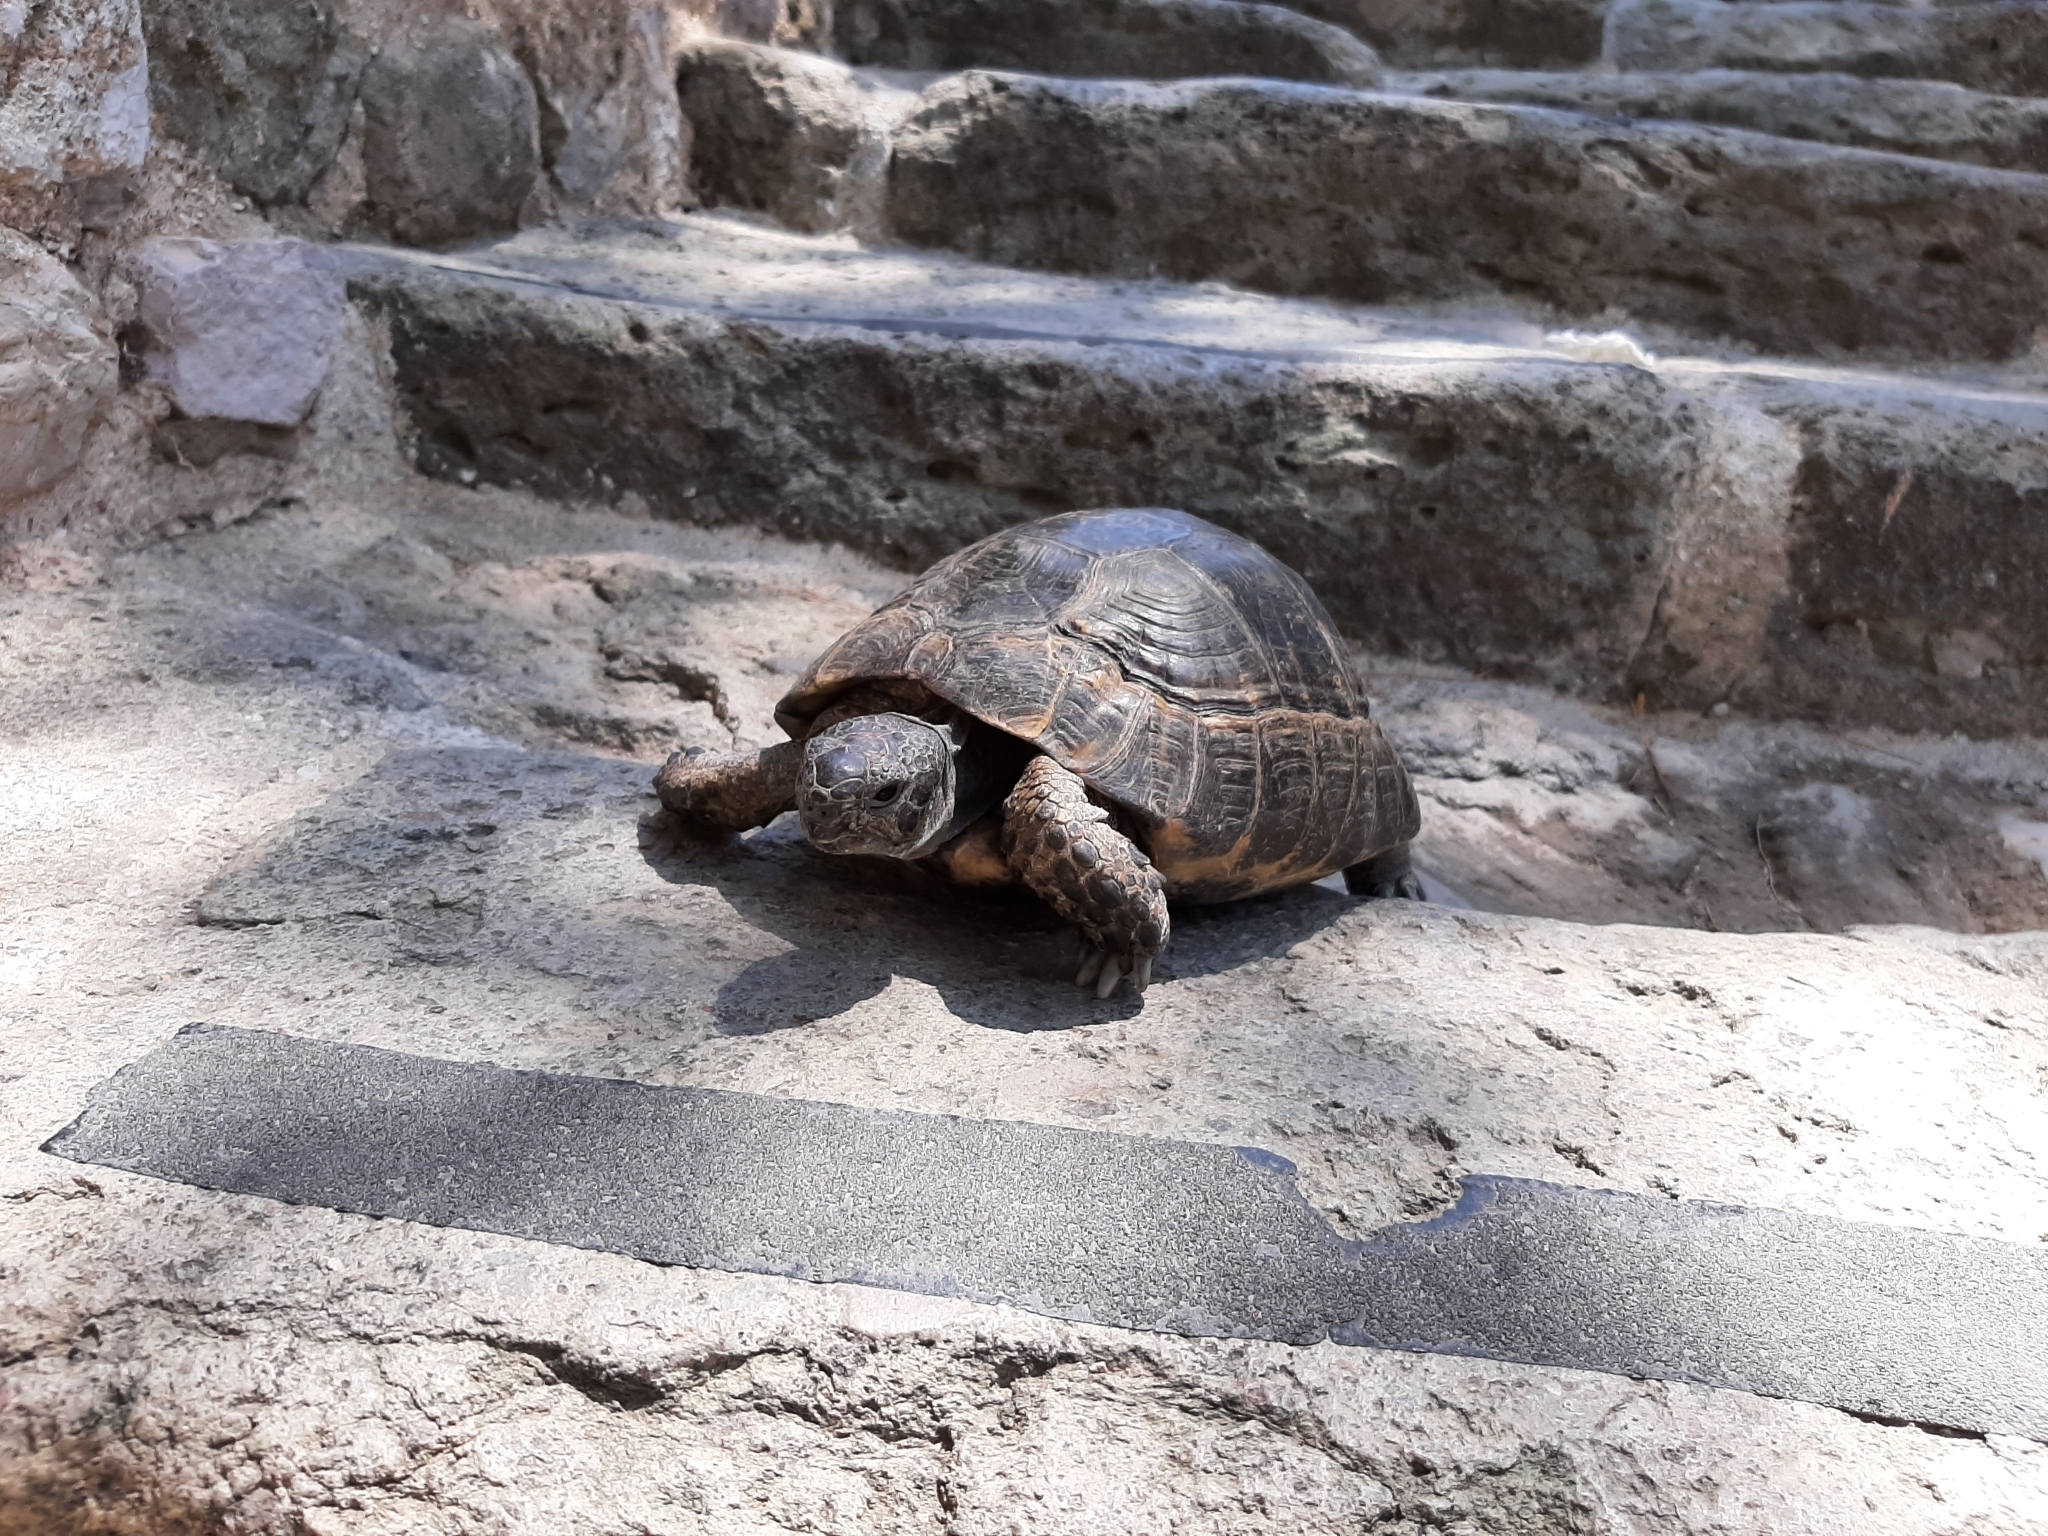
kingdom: Animalia
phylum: Chordata
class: Testudines
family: Testudinidae
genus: Testudo
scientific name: Testudo graeca
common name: Common tortoise
